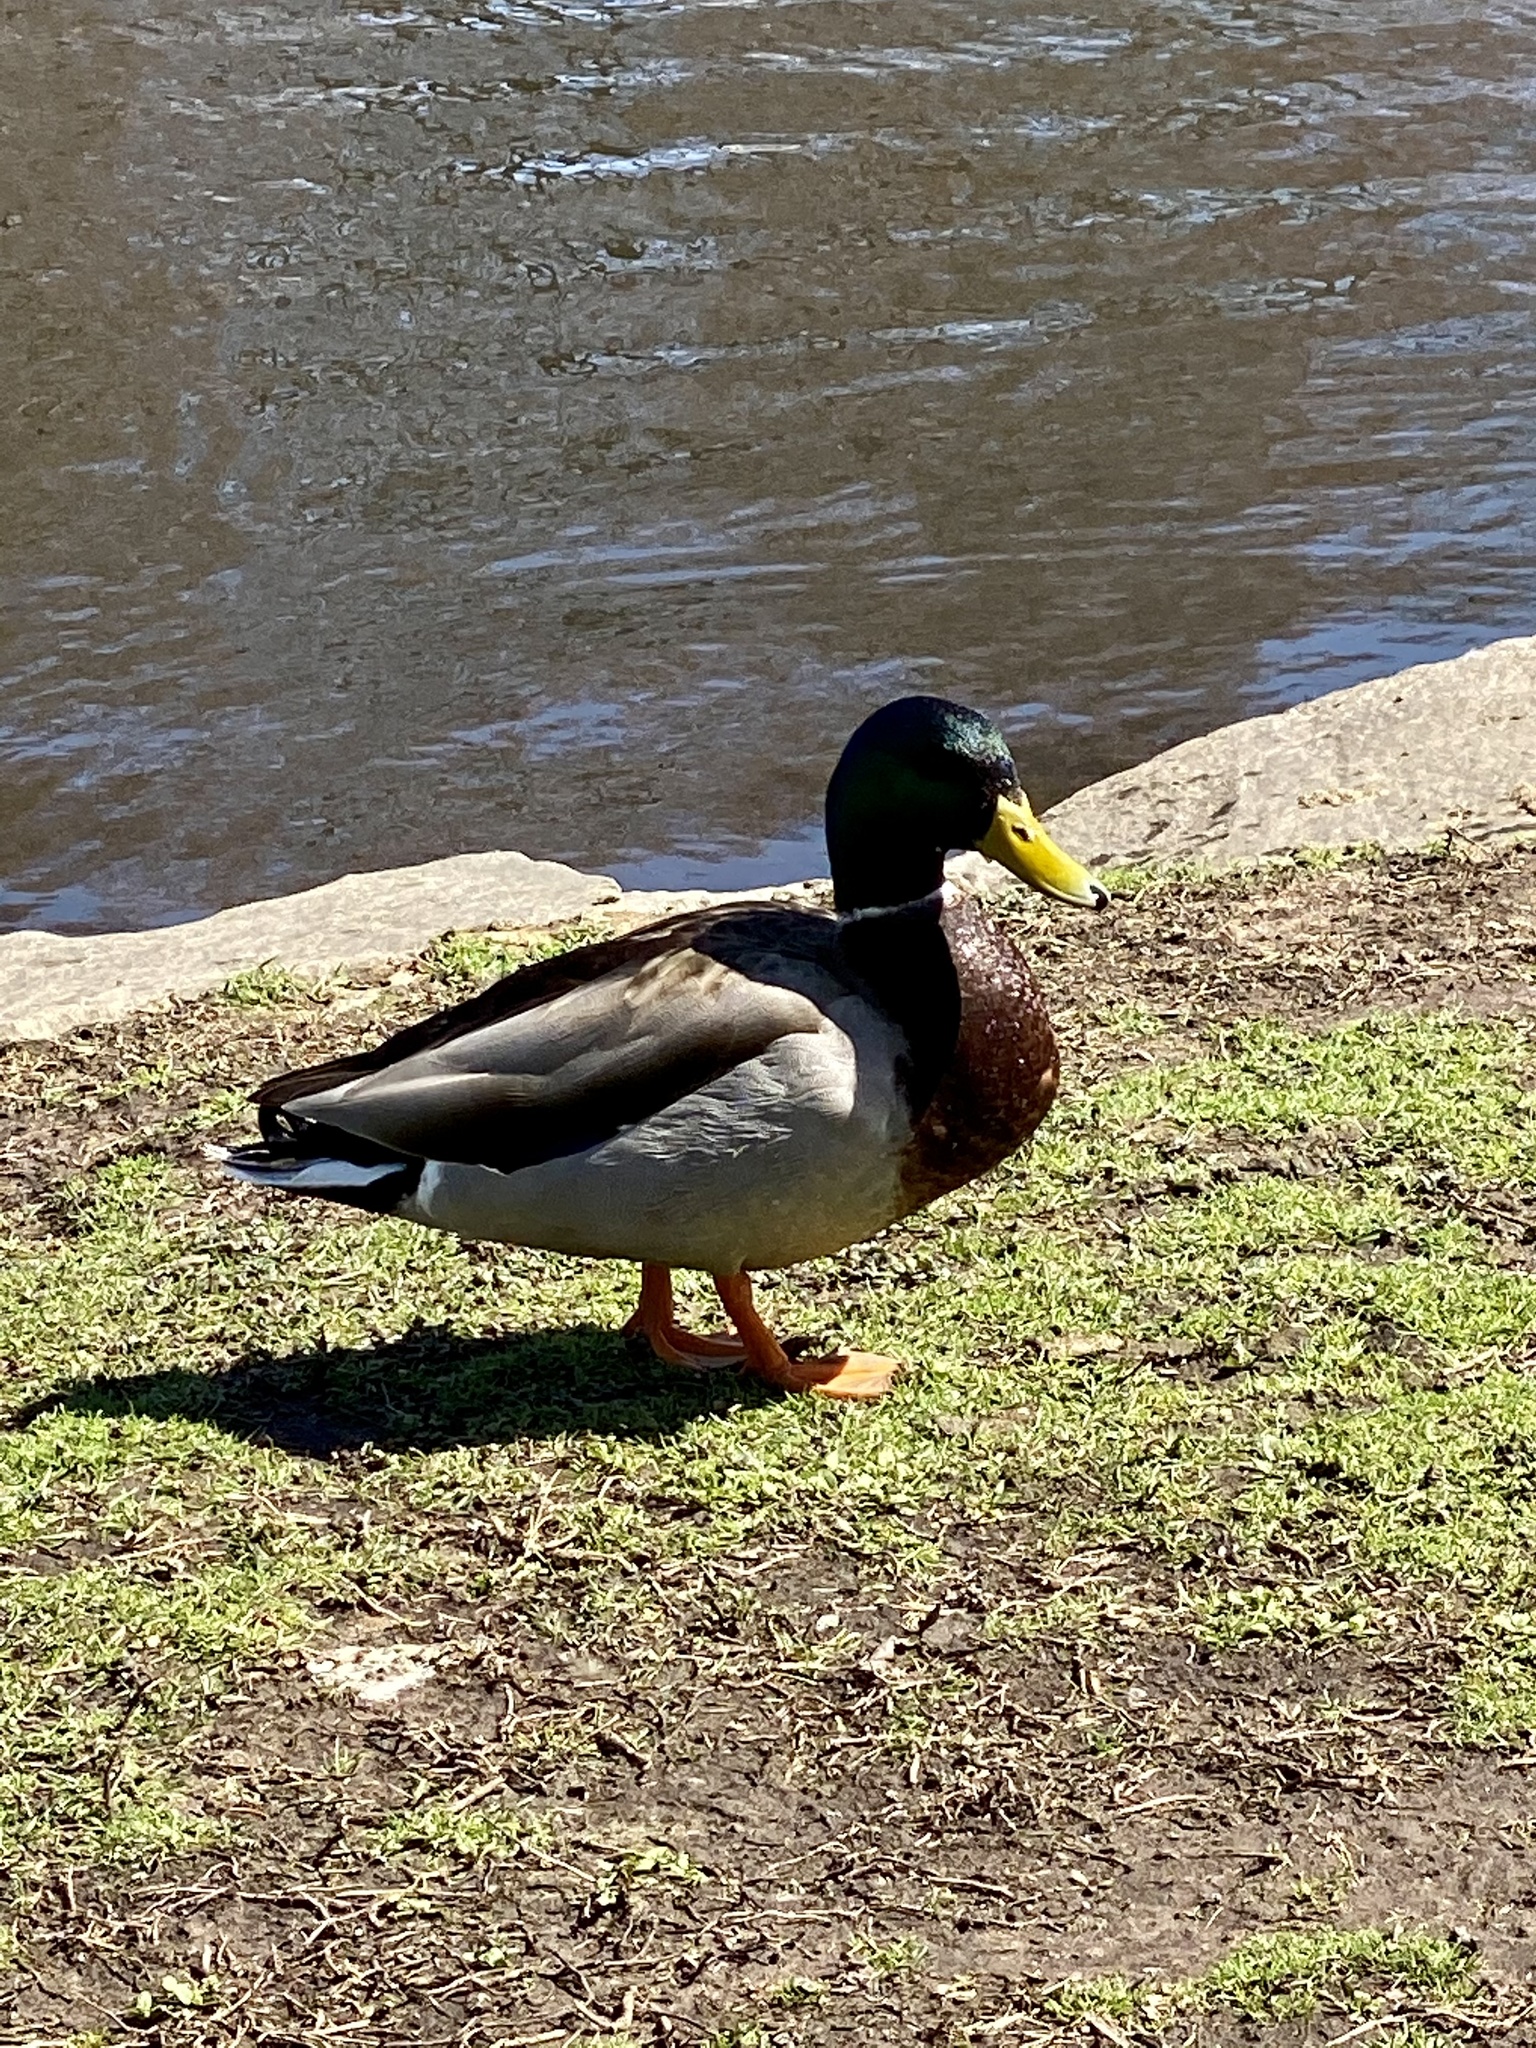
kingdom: Animalia
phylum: Chordata
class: Aves
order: Anseriformes
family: Anatidae
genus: Anas
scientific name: Anas platyrhynchos
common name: Mallard
